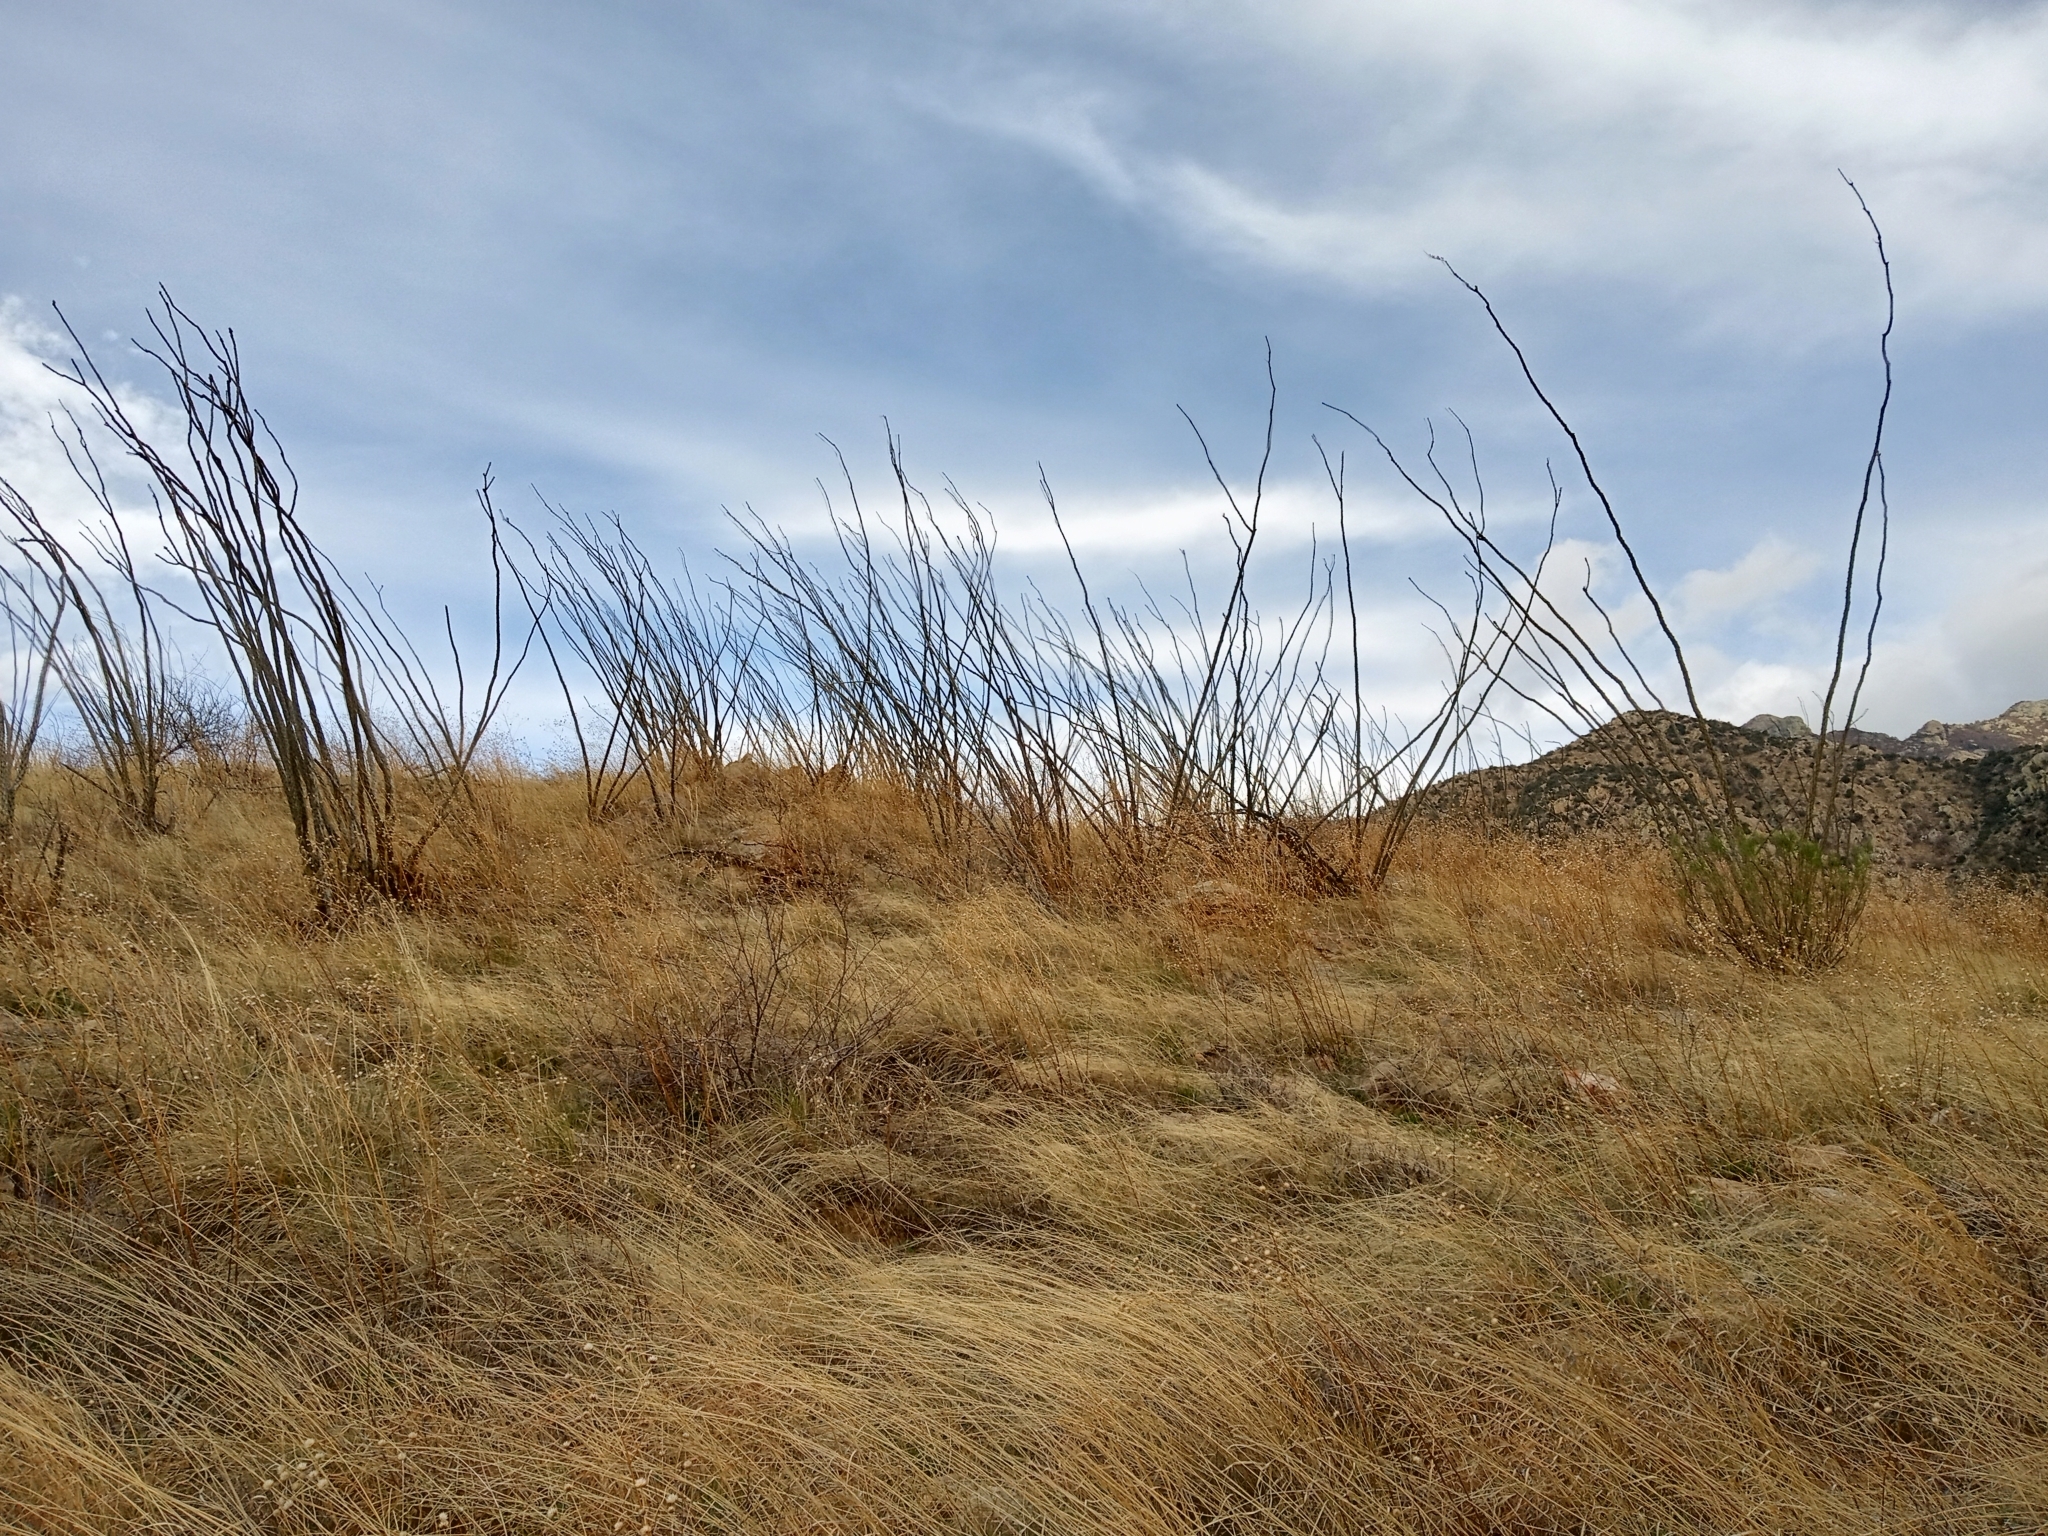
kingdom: Plantae
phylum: Tracheophyta
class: Magnoliopsida
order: Ericales
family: Fouquieriaceae
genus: Fouquieria
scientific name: Fouquieria splendens
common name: Vine-cactus
